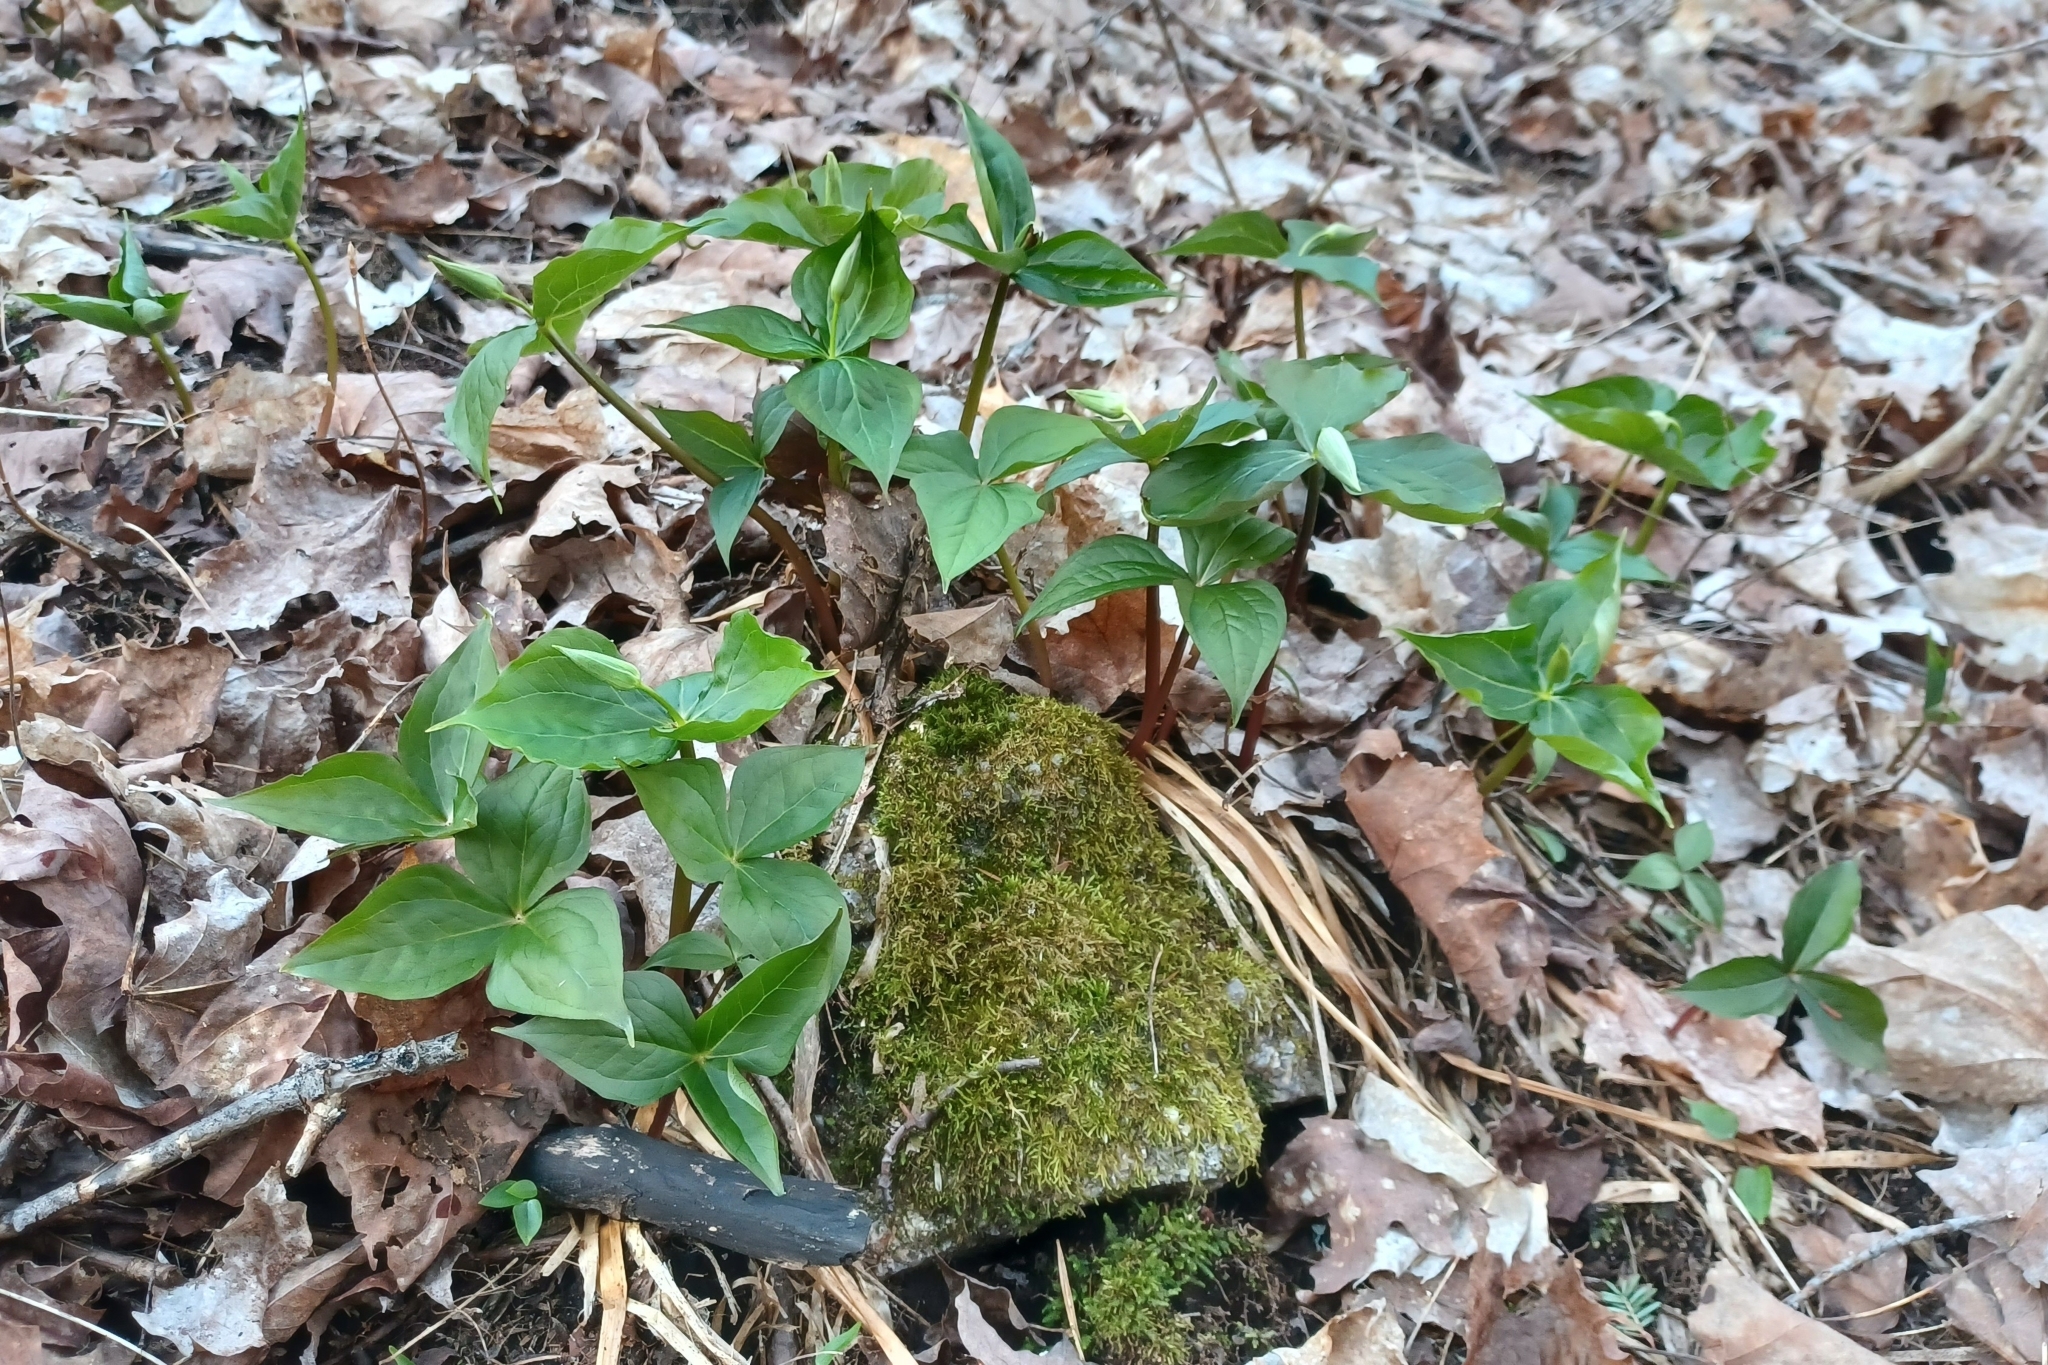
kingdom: Plantae
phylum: Tracheophyta
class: Liliopsida
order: Liliales
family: Melanthiaceae
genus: Trillium
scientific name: Trillium erectum
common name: Purple trillium
